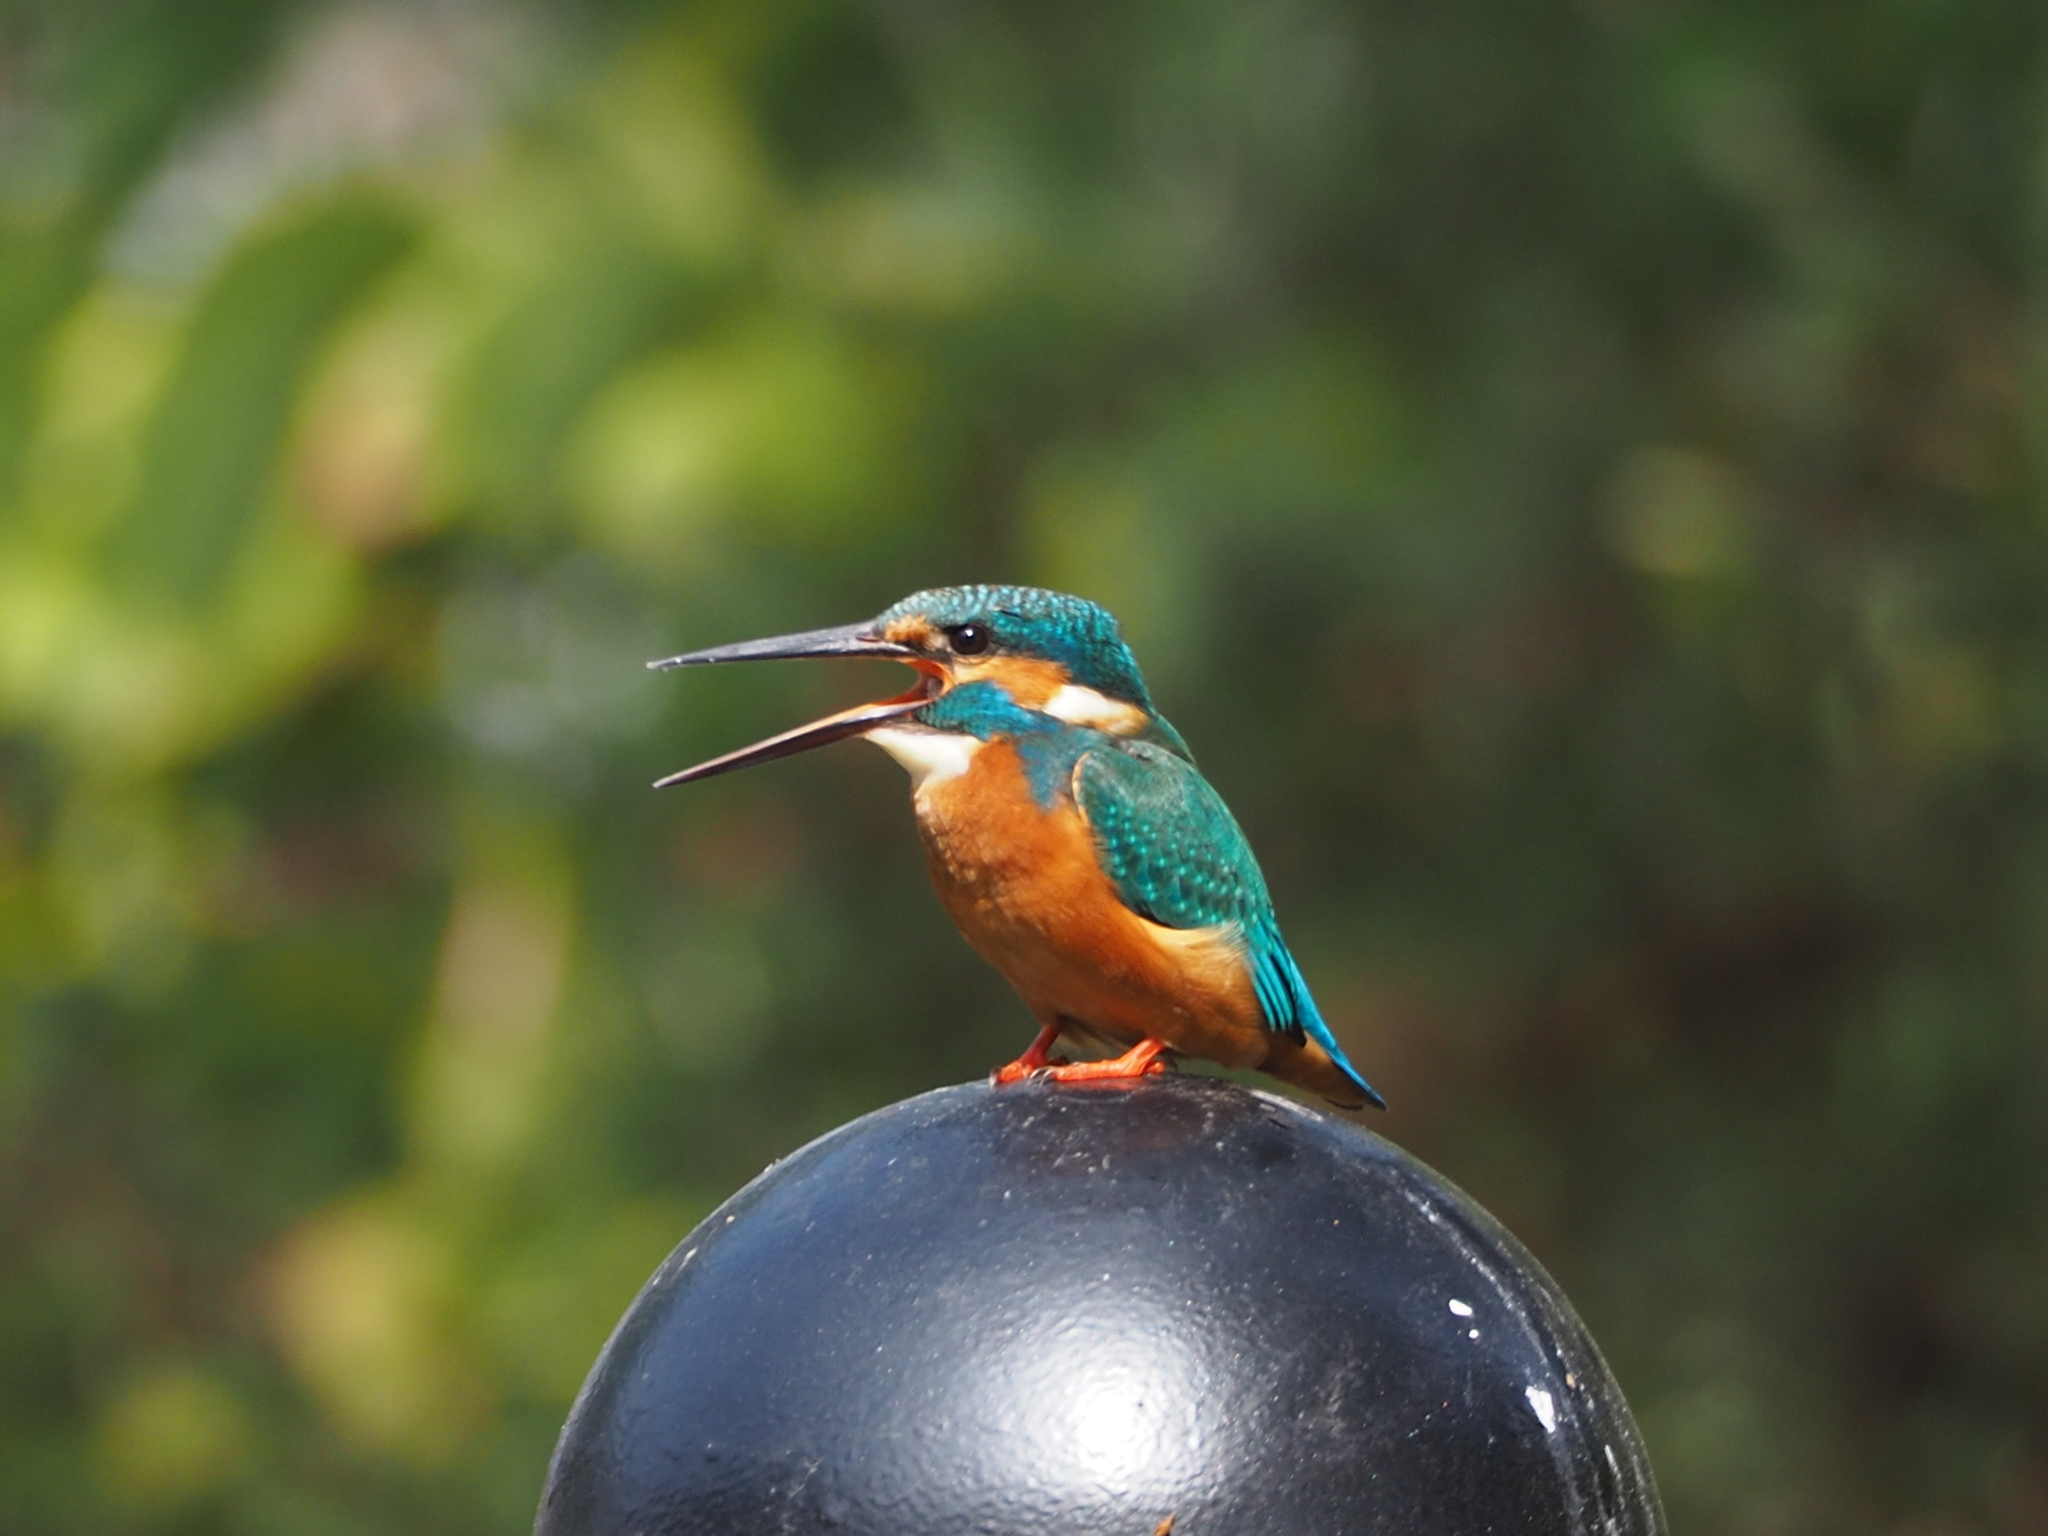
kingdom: Animalia
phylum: Chordata
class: Aves
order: Coraciiformes
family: Alcedinidae
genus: Alcedo
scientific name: Alcedo atthis
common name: Common kingfisher
